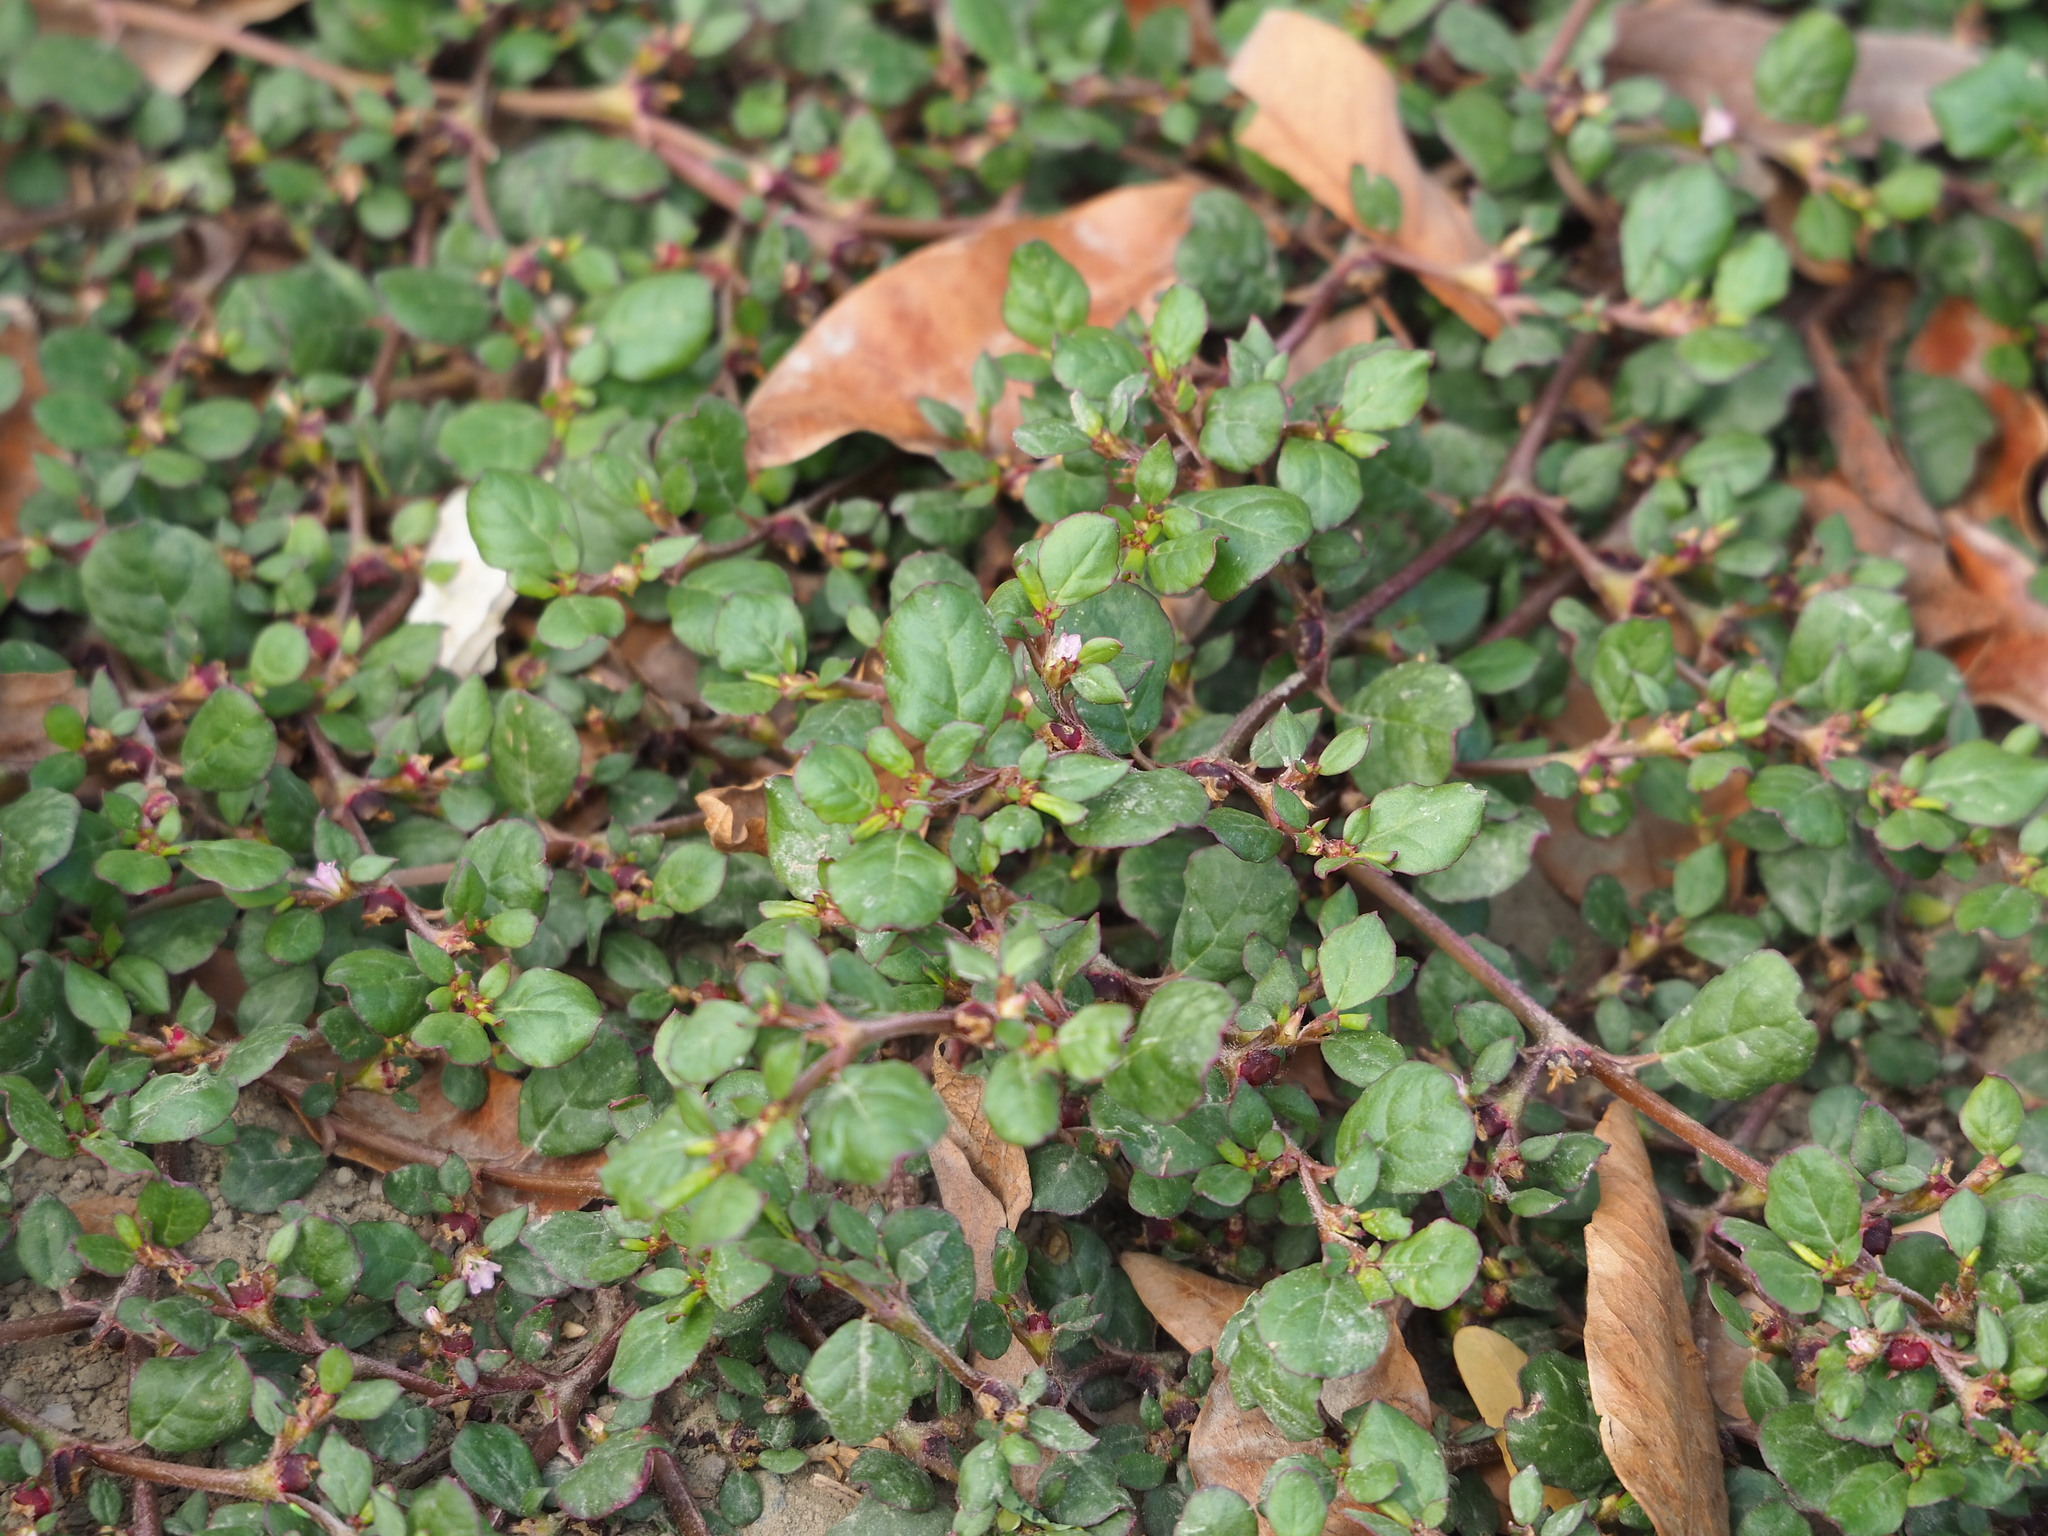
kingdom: Plantae
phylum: Tracheophyta
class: Magnoliopsida
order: Caryophyllales
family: Aizoaceae
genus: Trianthema
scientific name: Trianthema portulacastrum
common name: Desert horsepurslane
